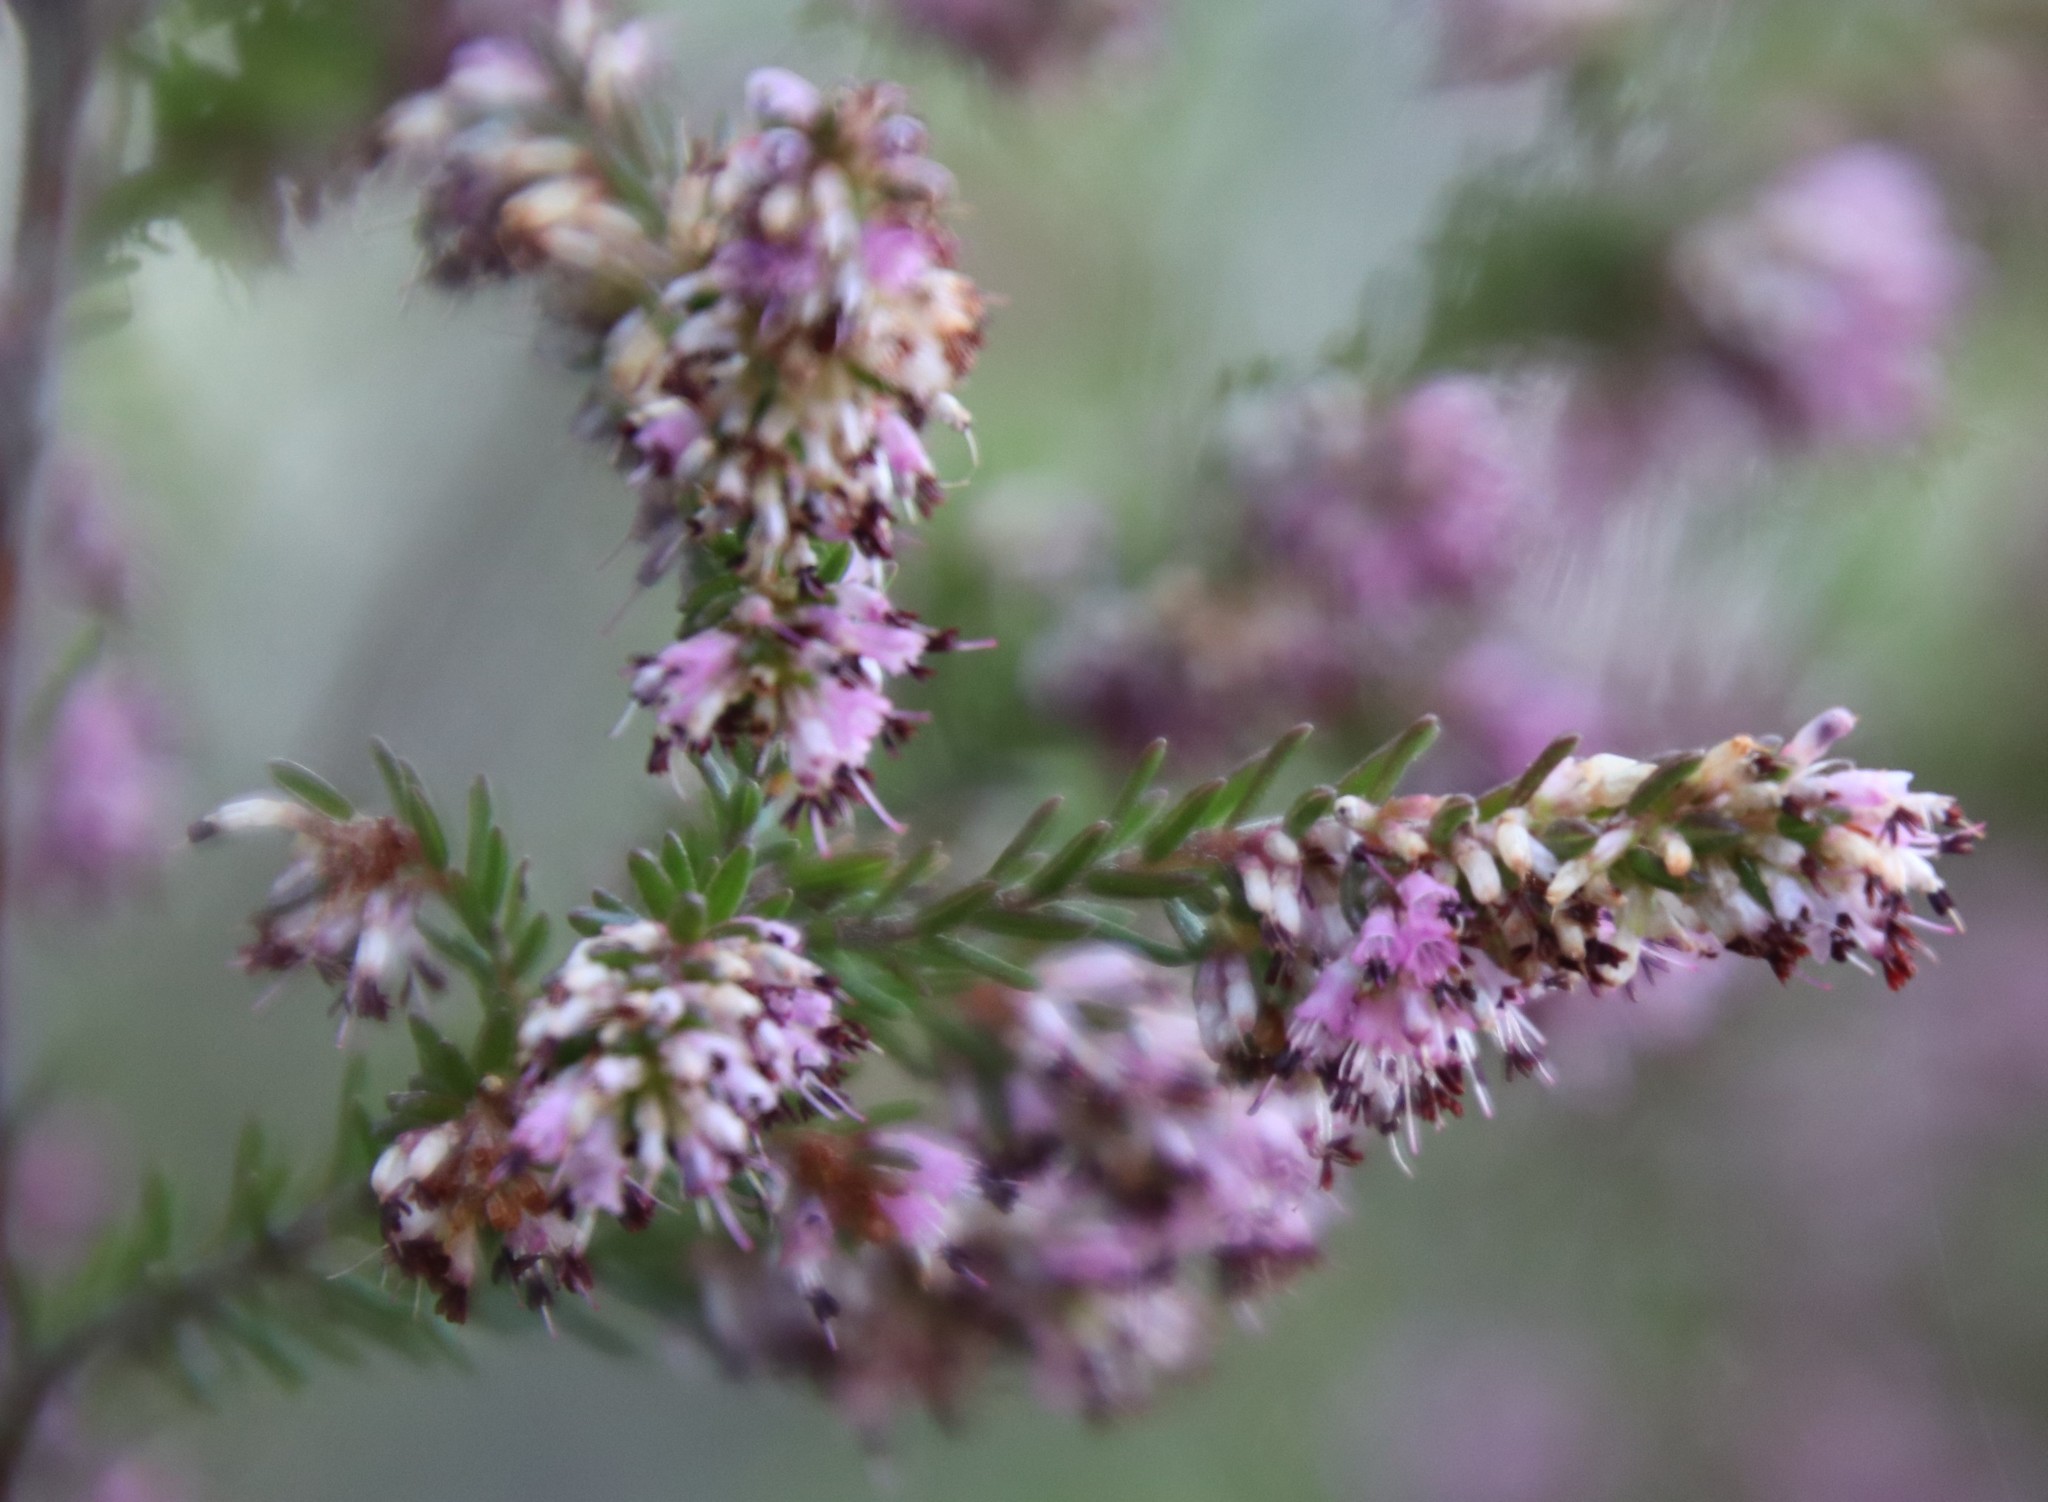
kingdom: Plantae
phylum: Tracheophyta
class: Magnoliopsida
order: Ericales
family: Ericaceae
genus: Erica
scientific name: Erica uberiflora
